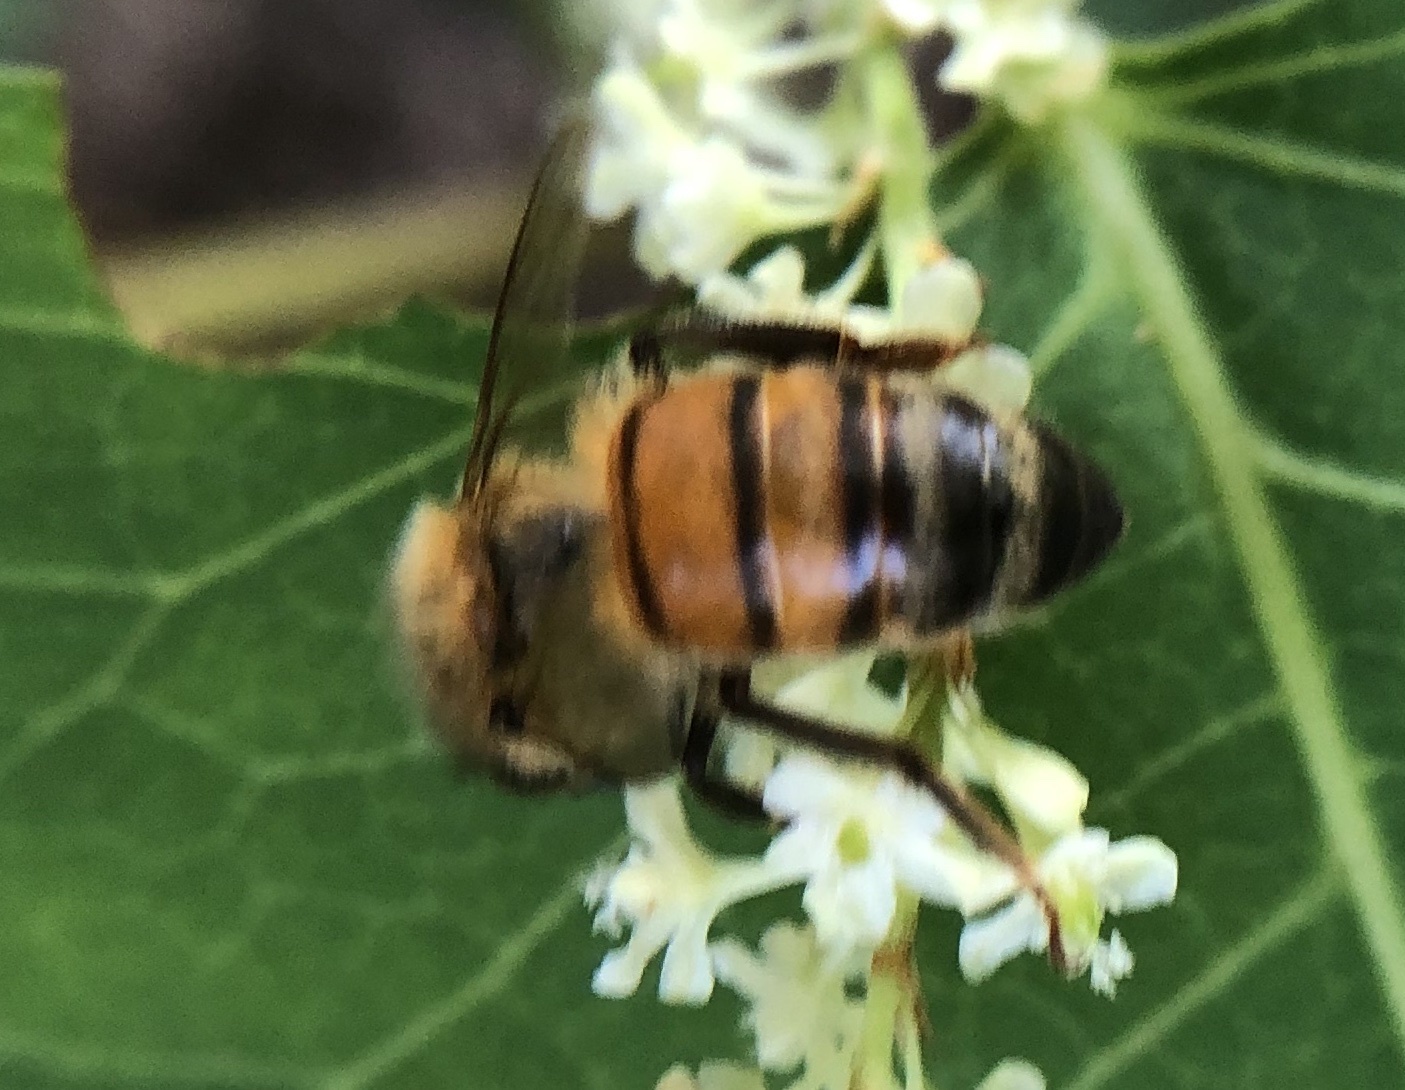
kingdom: Animalia
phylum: Arthropoda
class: Insecta
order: Hymenoptera
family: Apidae
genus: Apis
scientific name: Apis mellifera
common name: Honey bee
